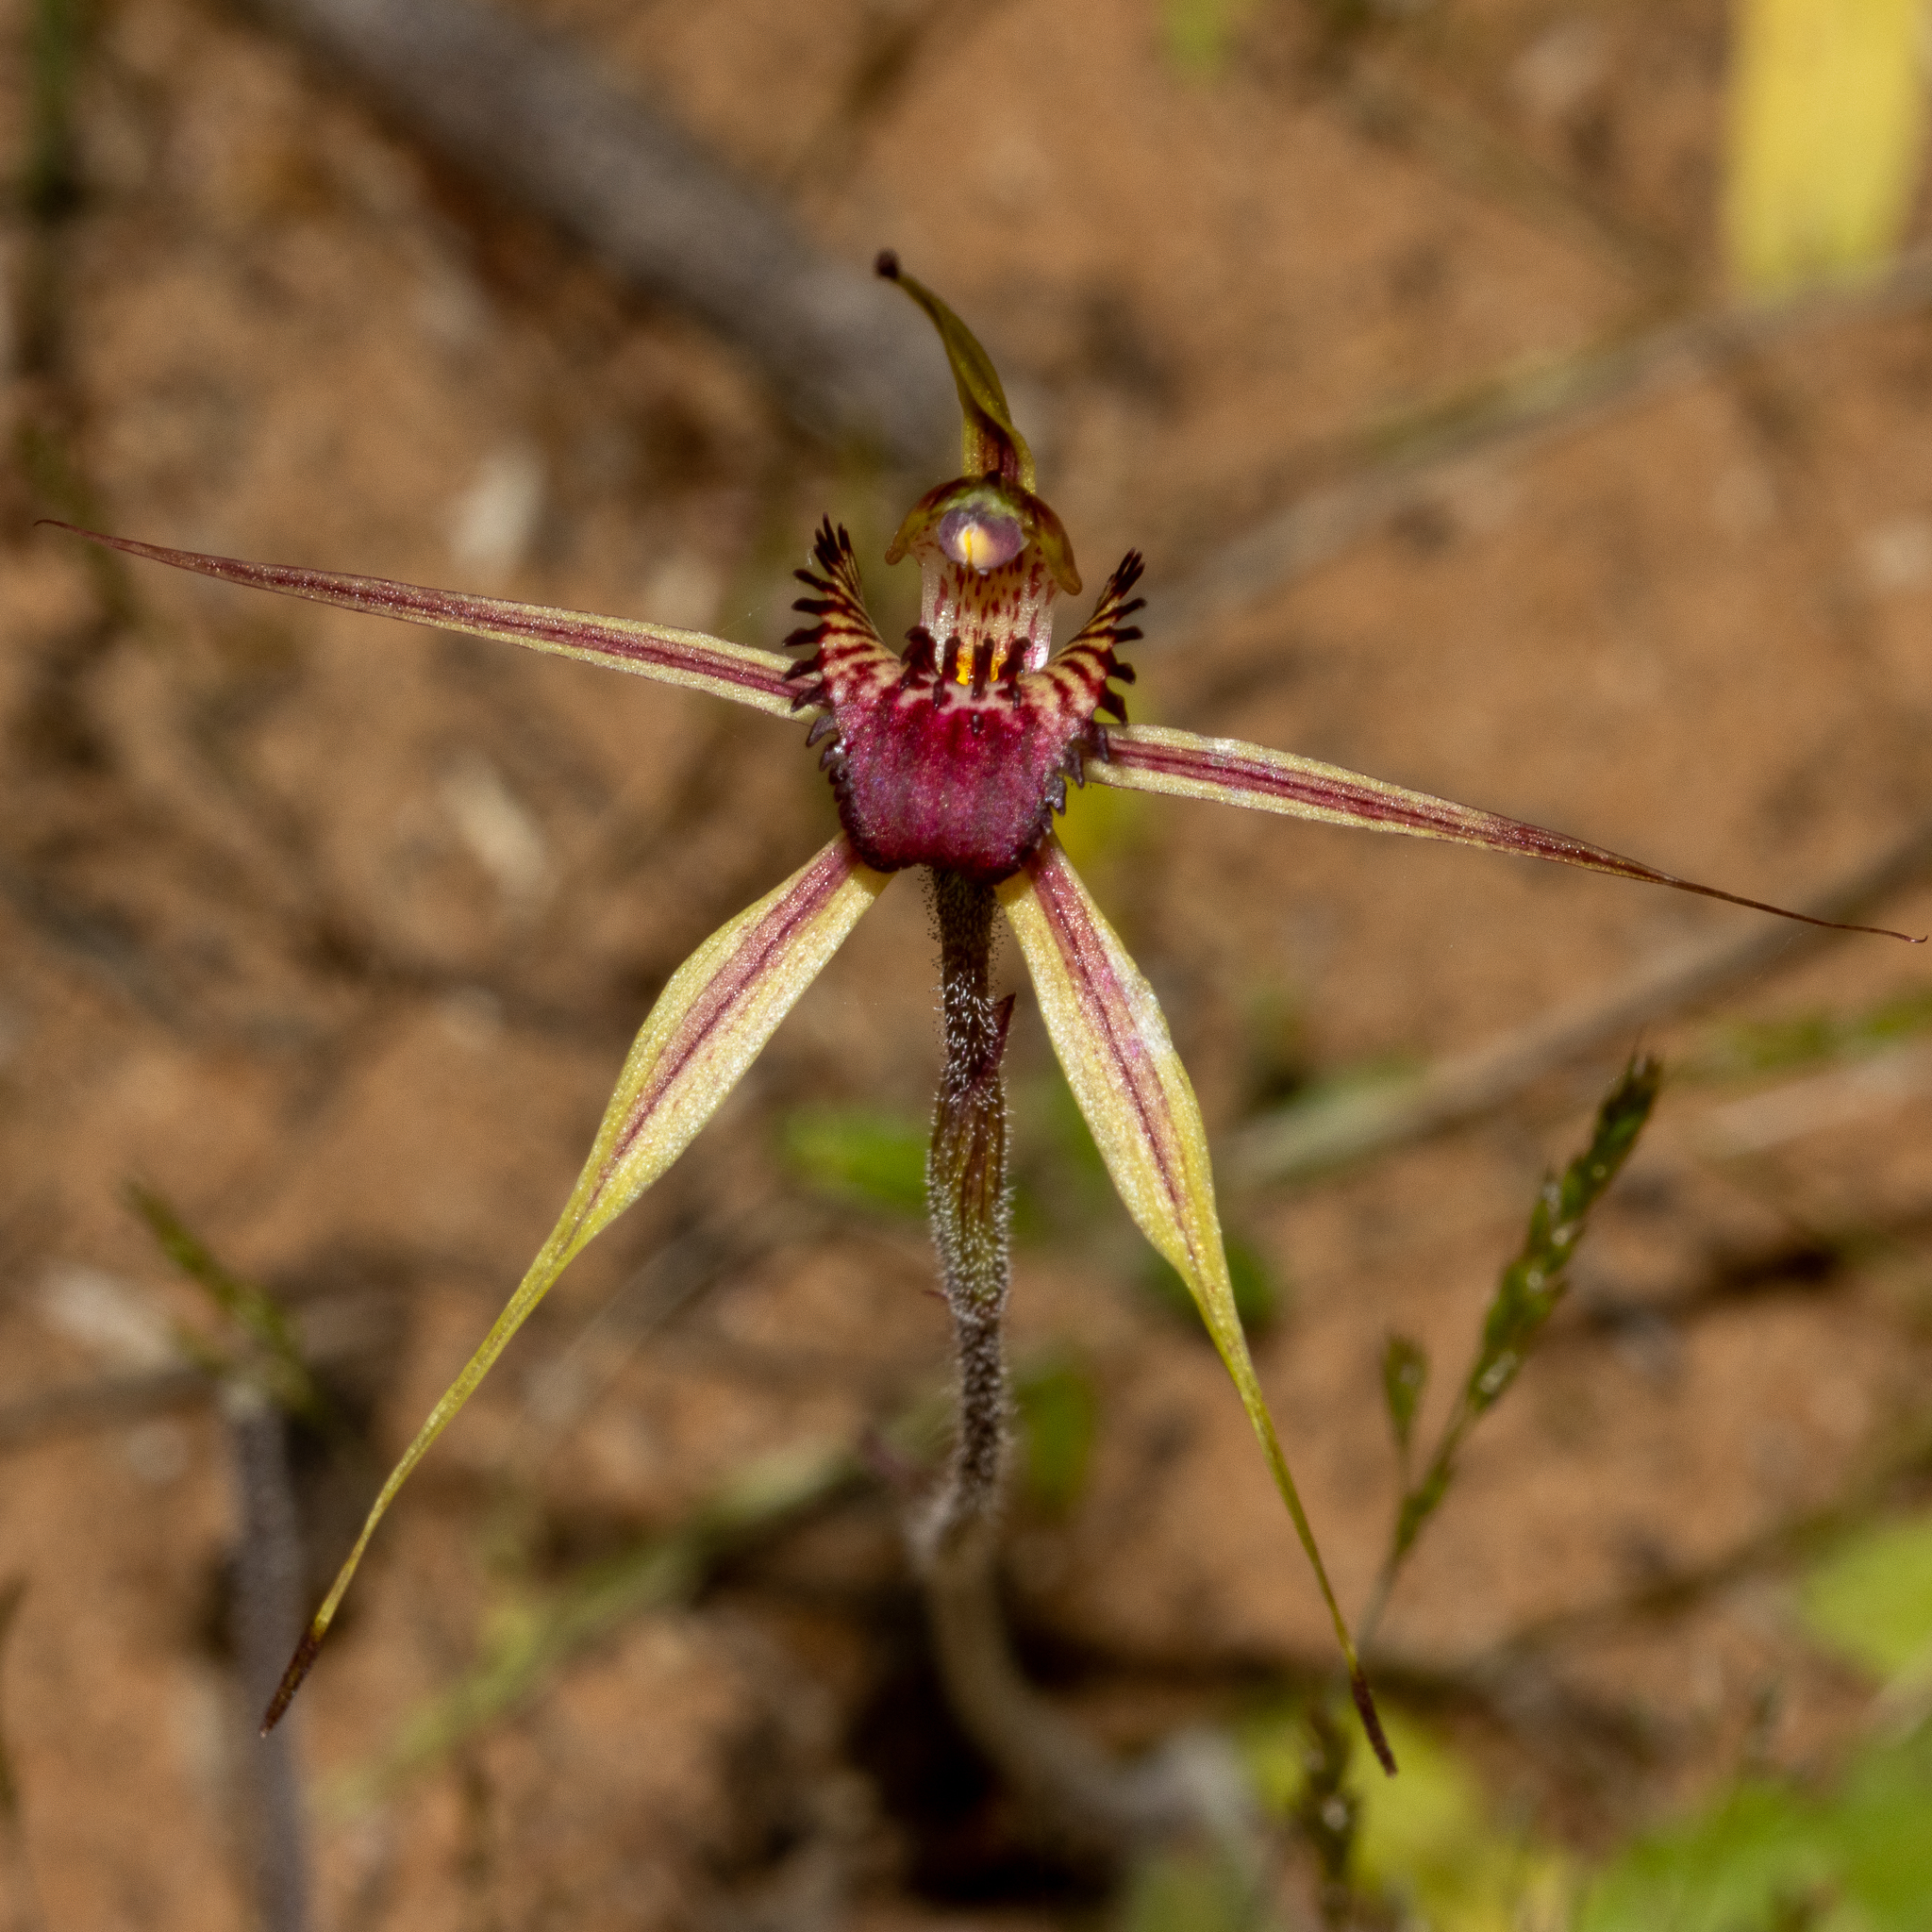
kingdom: Plantae
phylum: Tracheophyta
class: Liliopsida
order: Asparagales
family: Orchidaceae
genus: Caladenia
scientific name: Caladenia strigosa
